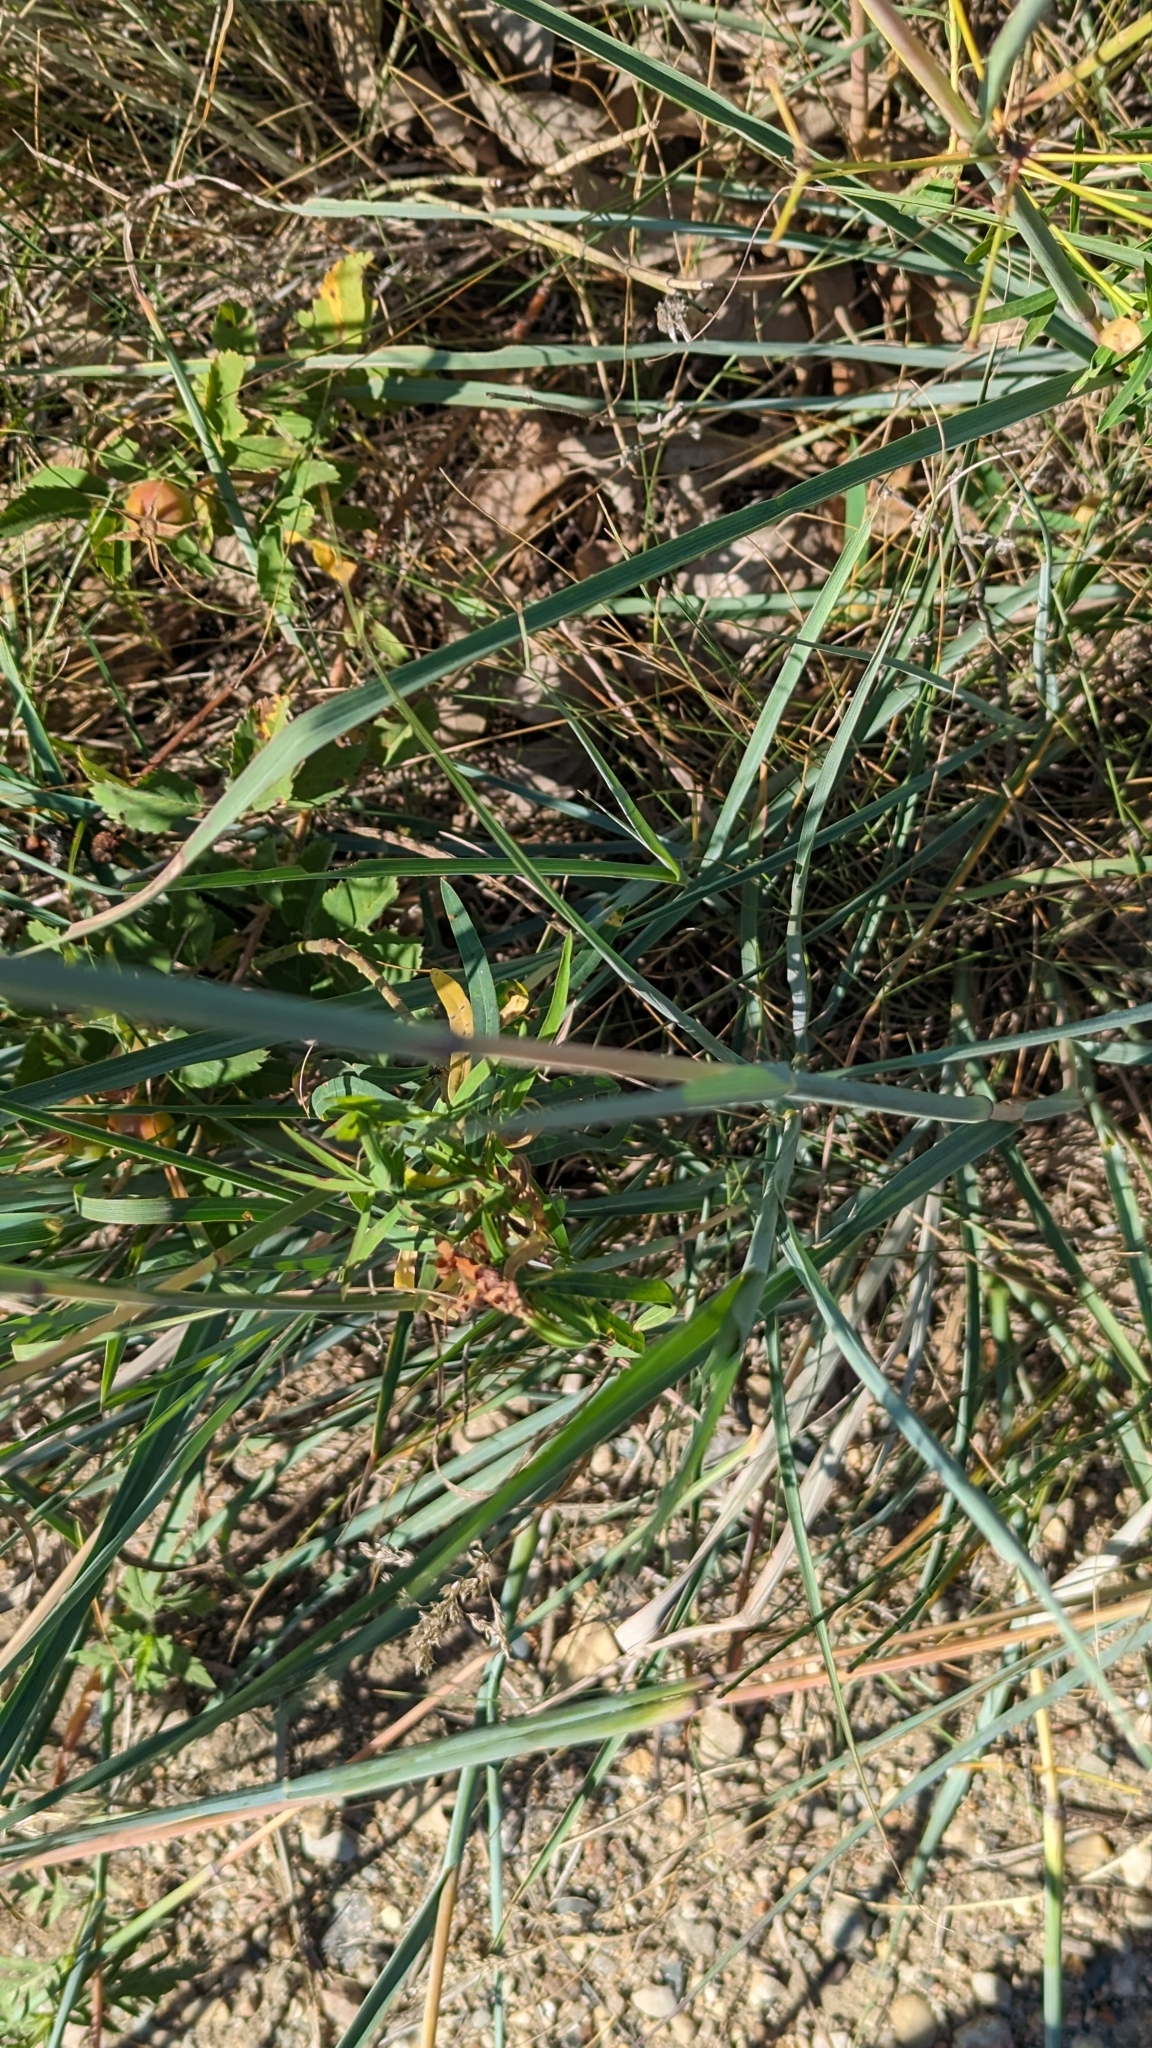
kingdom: Plantae
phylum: Tracheophyta
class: Liliopsida
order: Poales
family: Poaceae
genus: Andropogon
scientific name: Andropogon hallii
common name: Sand bluestem
